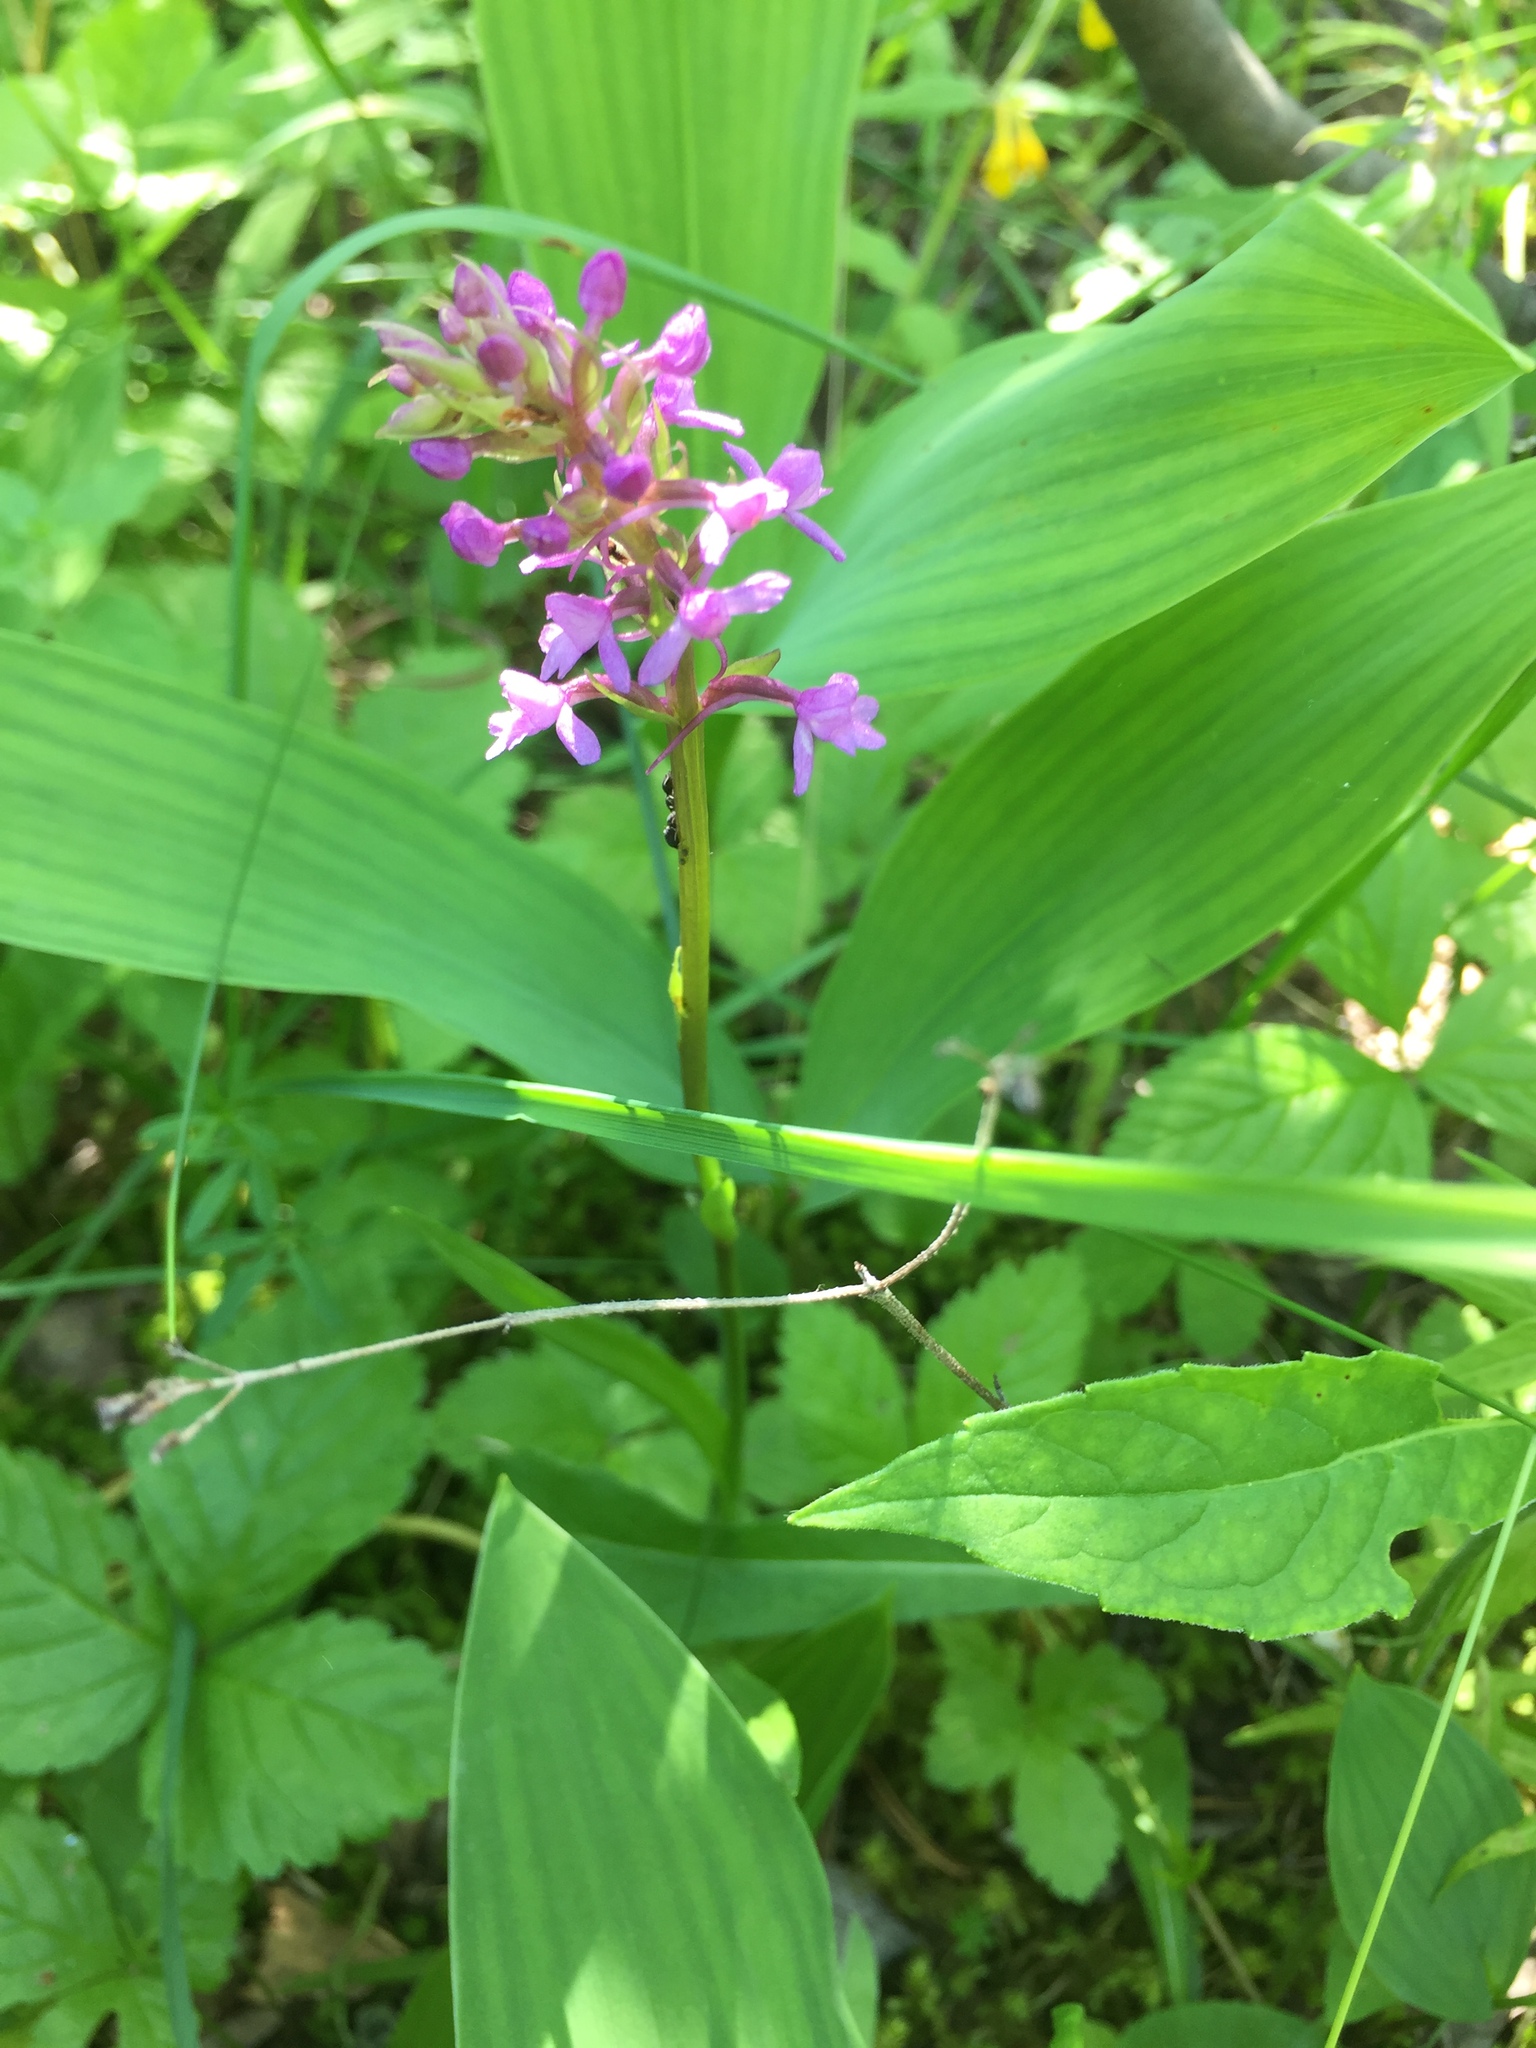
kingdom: Plantae
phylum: Tracheophyta
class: Liliopsida
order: Asparagales
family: Orchidaceae
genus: Gymnadenia
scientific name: Gymnadenia conopsea
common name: Fragrant orchid
